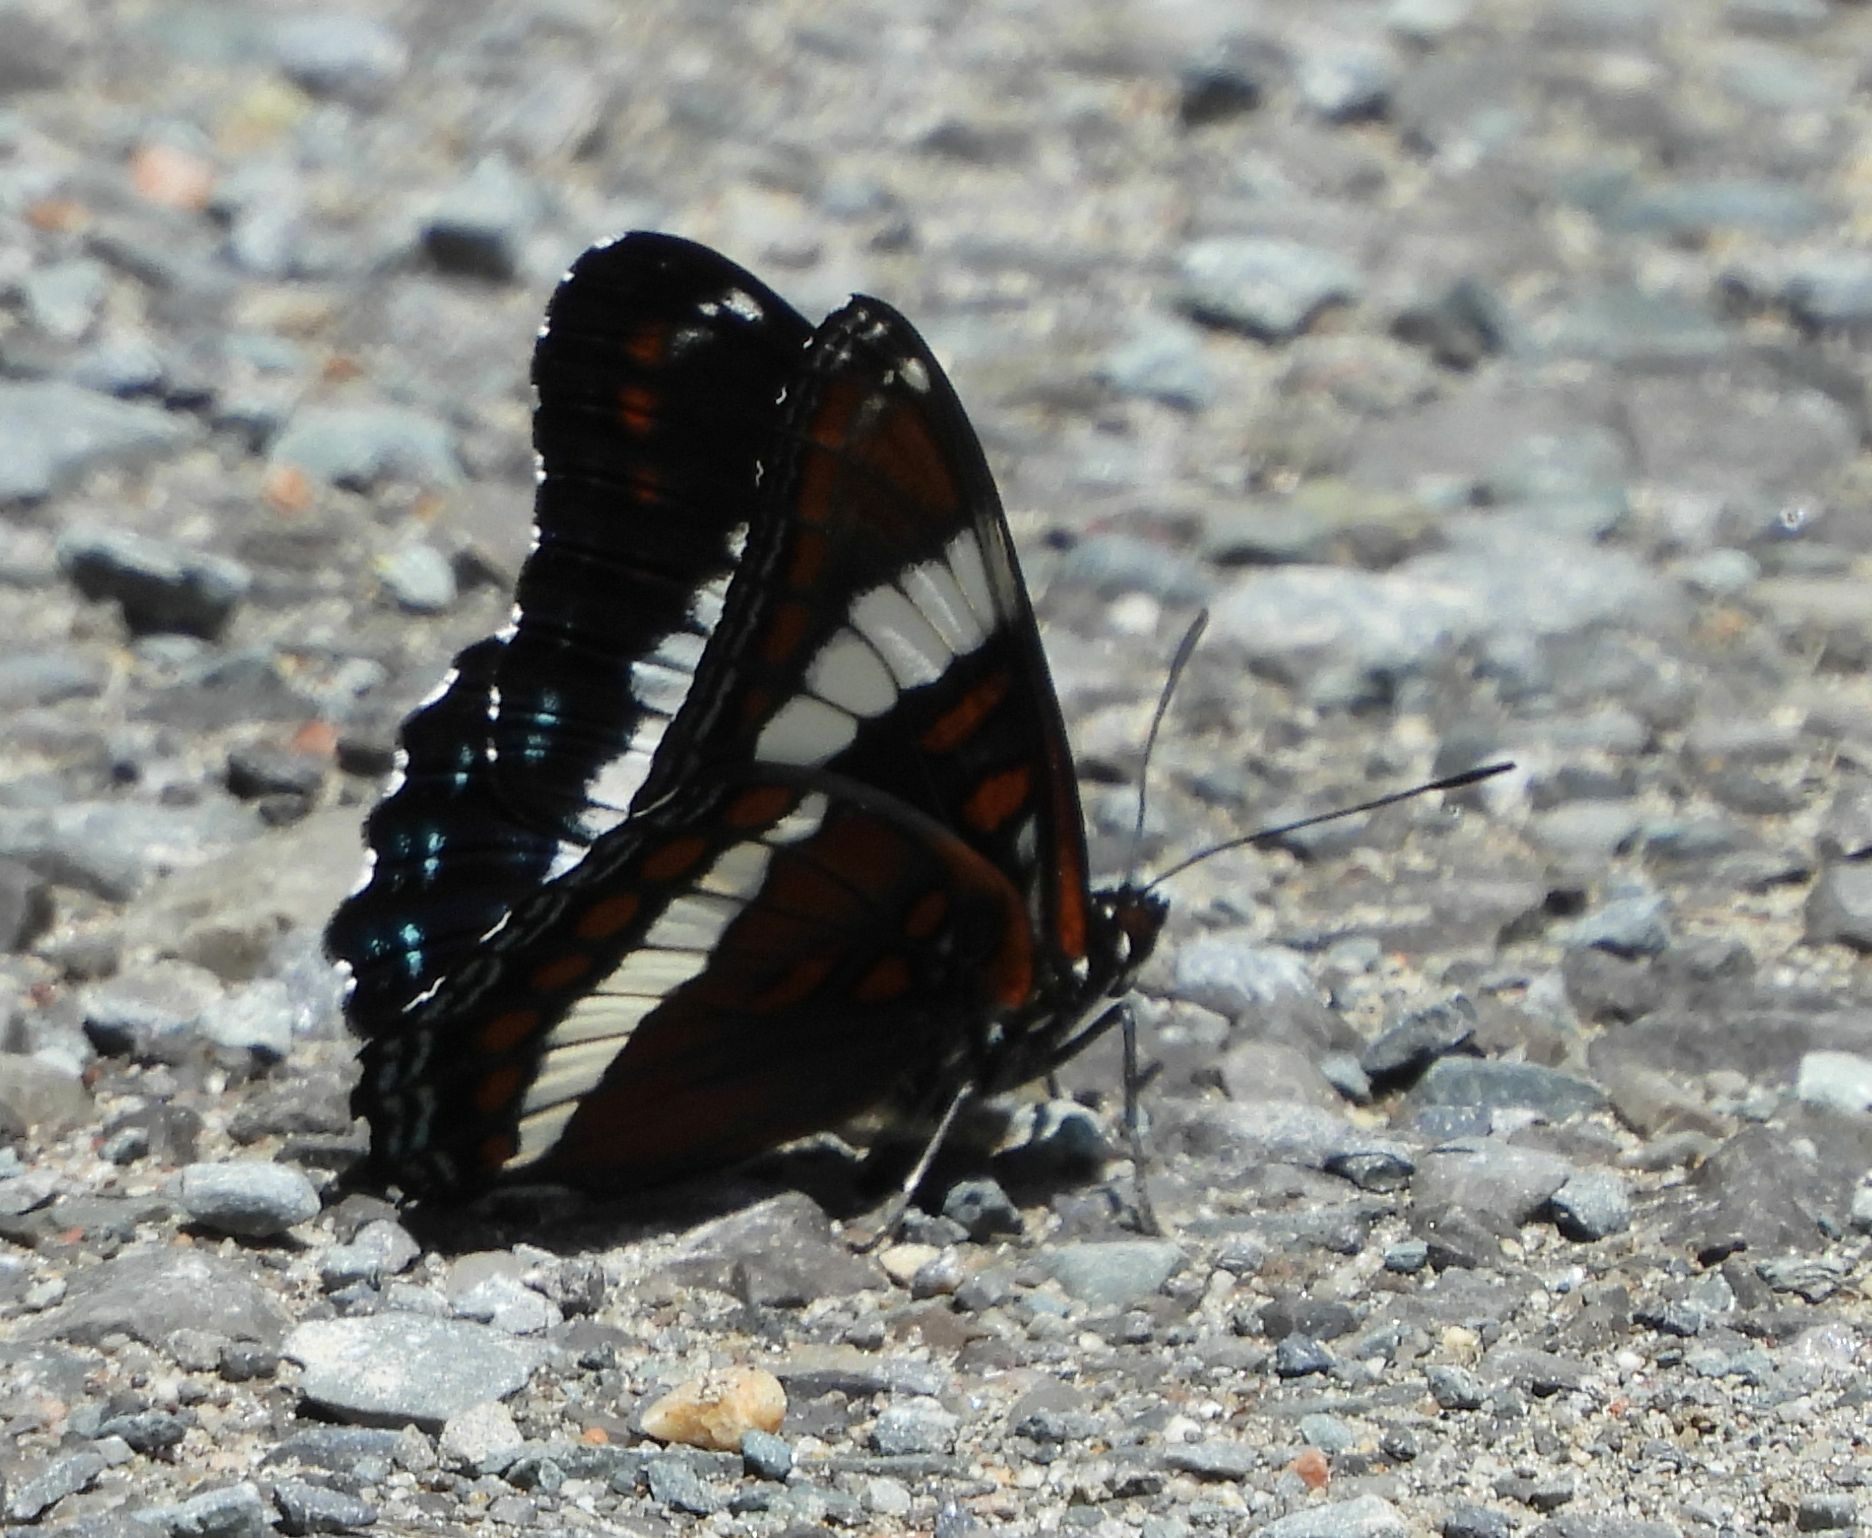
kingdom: Animalia
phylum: Arthropoda
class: Insecta
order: Lepidoptera
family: Nymphalidae
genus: Limenitis
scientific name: Limenitis arthemis
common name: Red-spotted admiral
